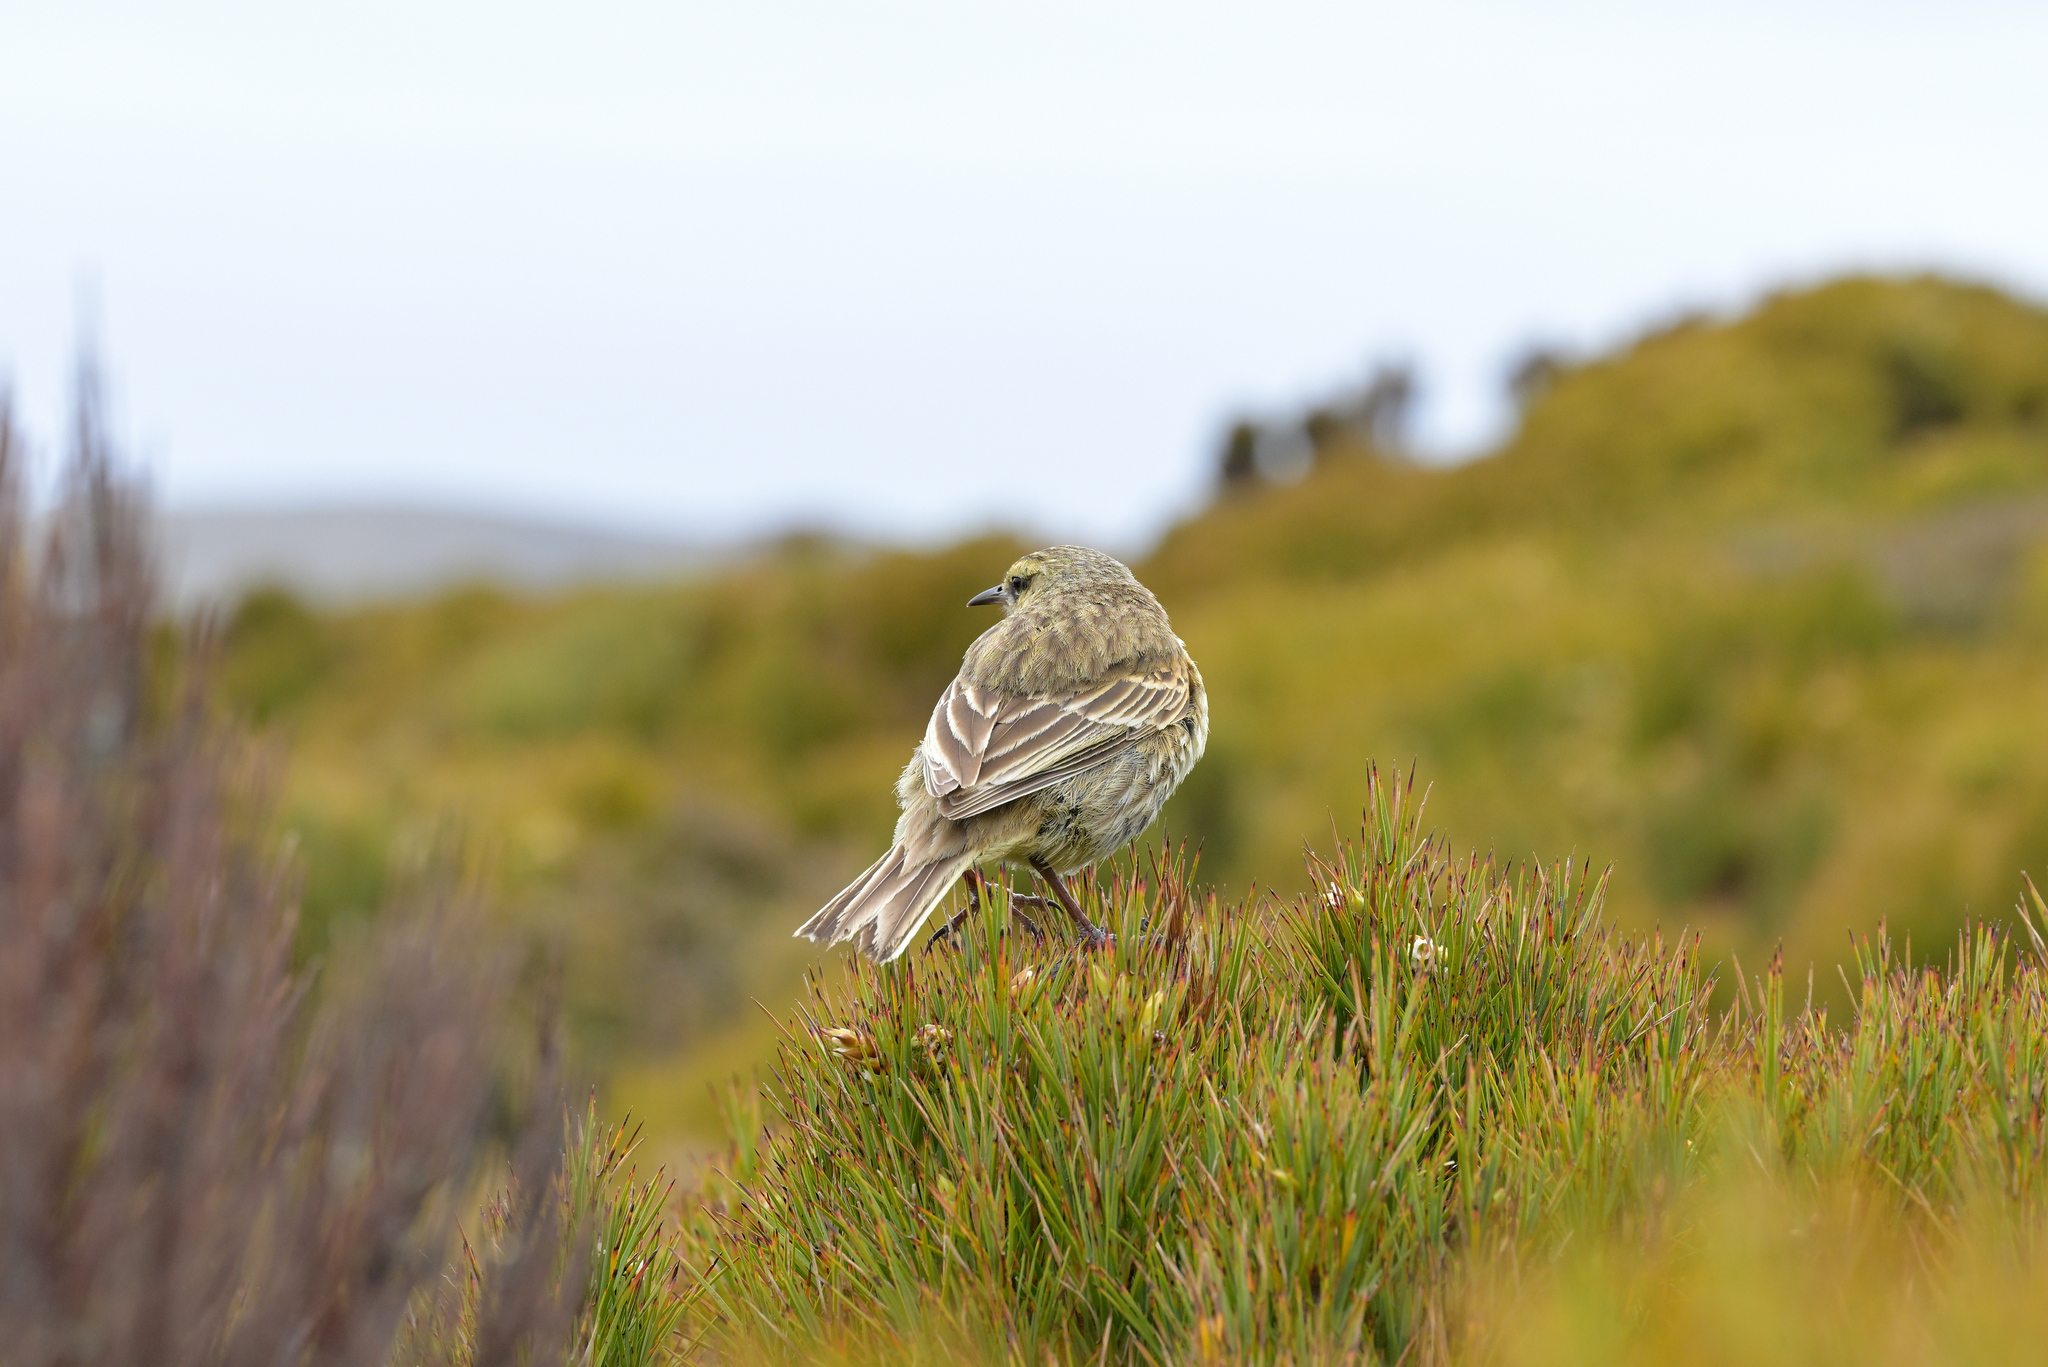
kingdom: Animalia
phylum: Chordata
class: Aves
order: Passeriformes
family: Motacillidae
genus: Anthus
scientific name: Anthus novaeseelandiae
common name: New zealand pipit
